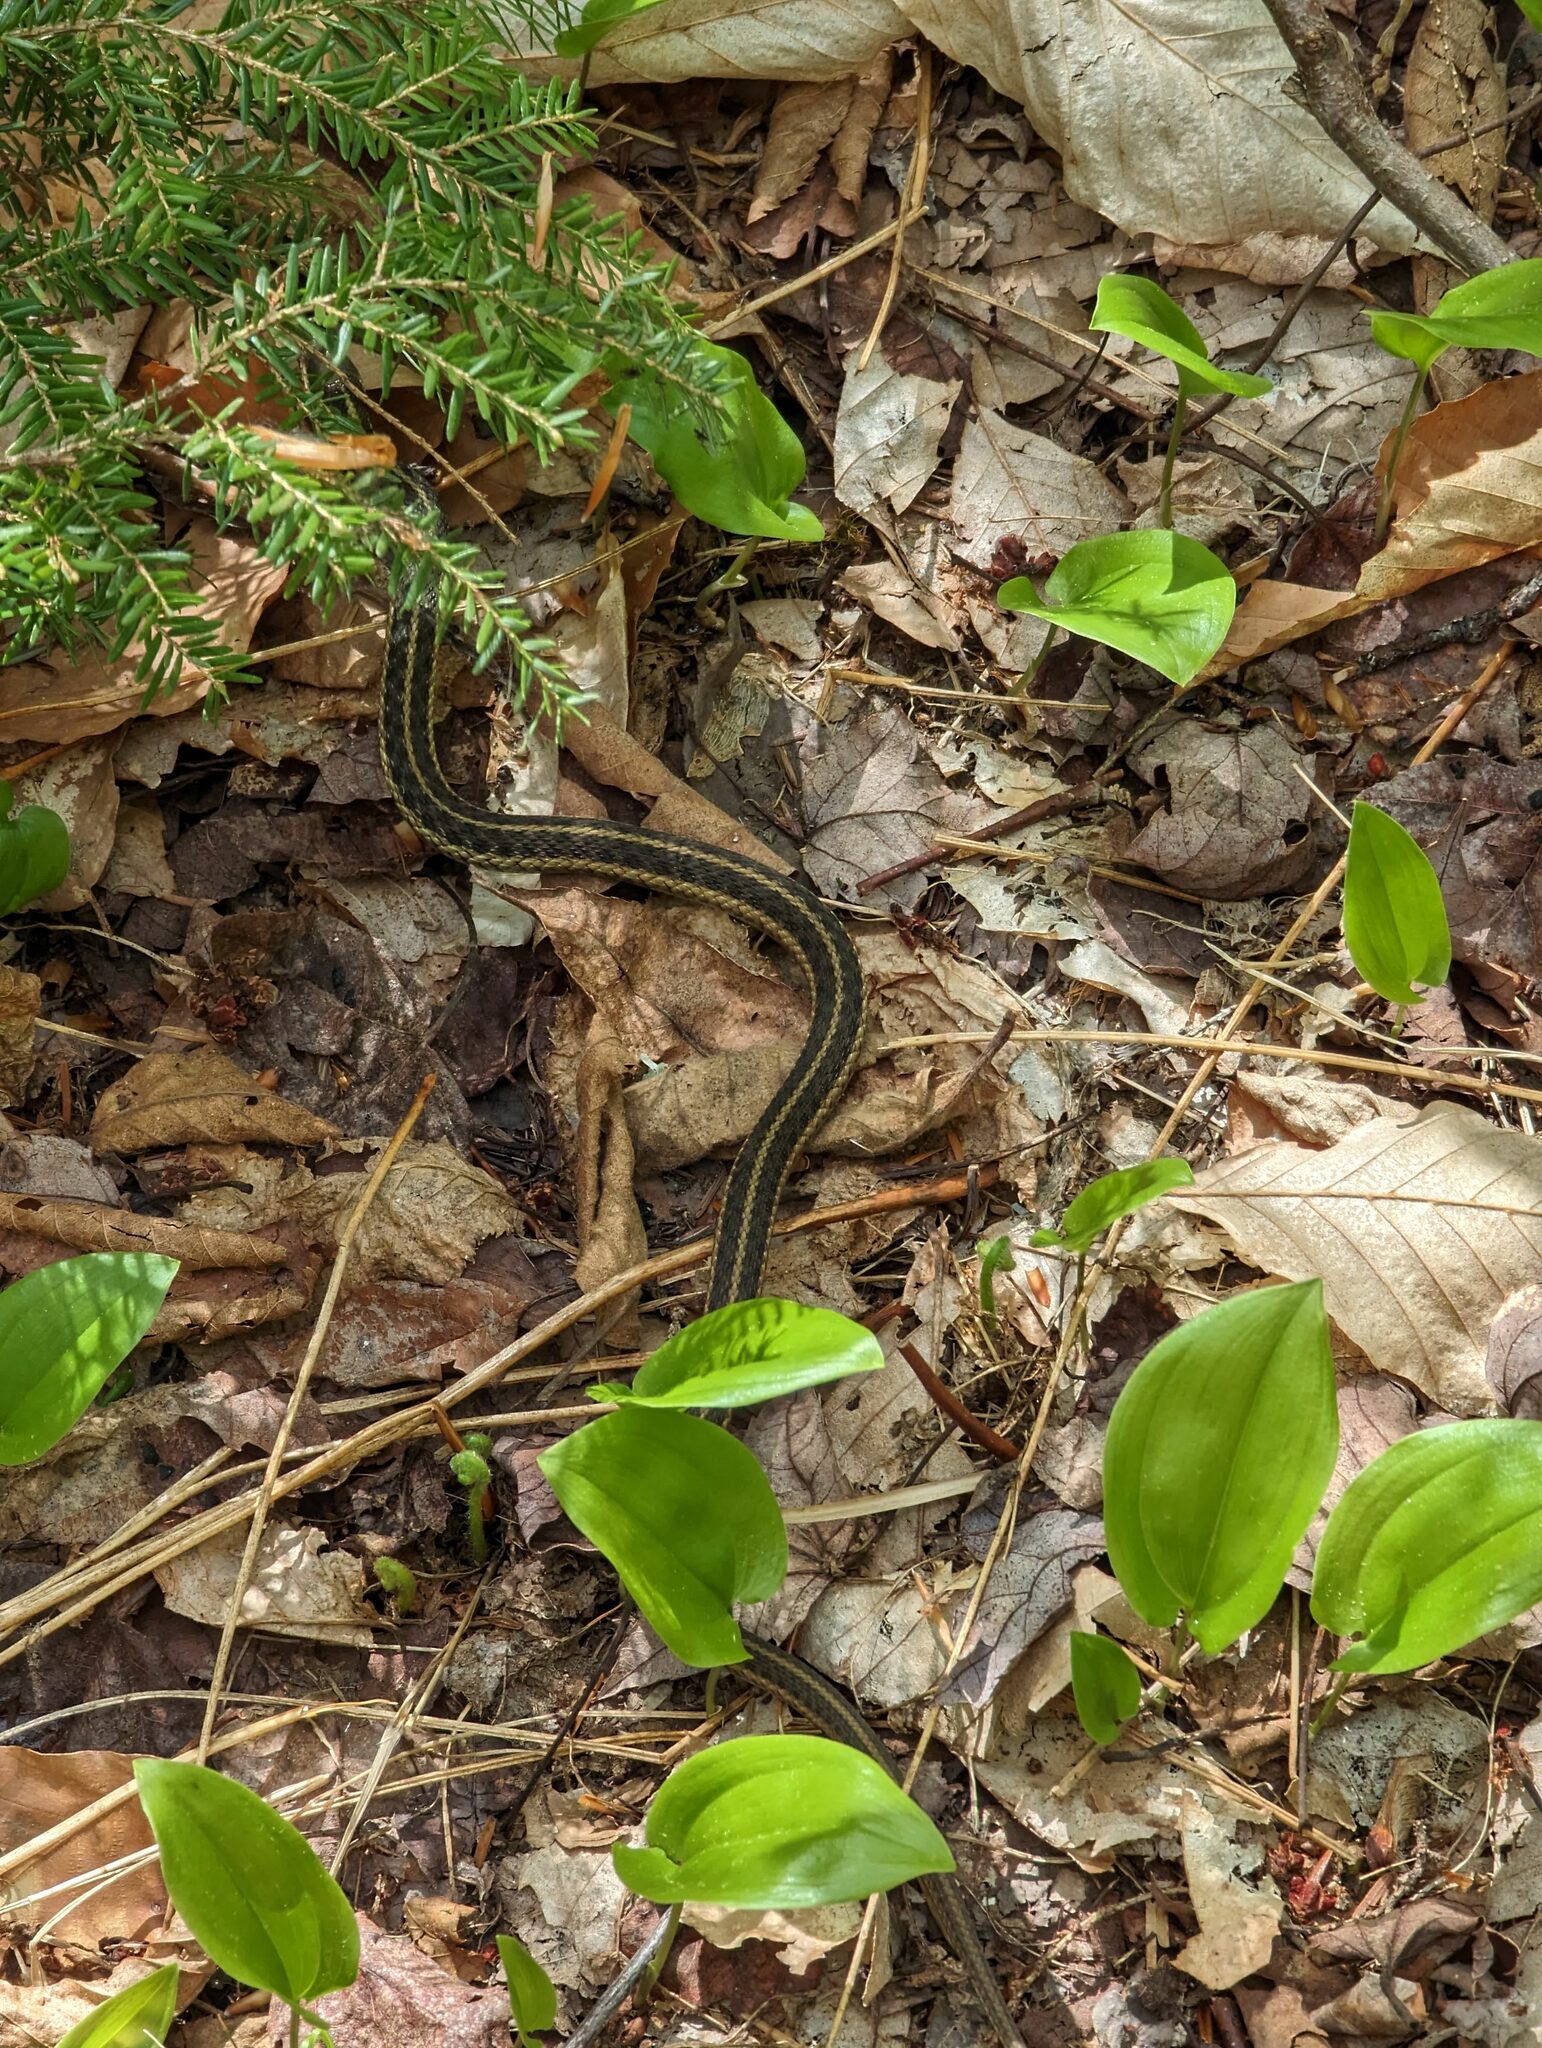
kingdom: Animalia
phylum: Chordata
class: Squamata
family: Colubridae
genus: Thamnophis
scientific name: Thamnophis sirtalis
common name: Common garter snake
